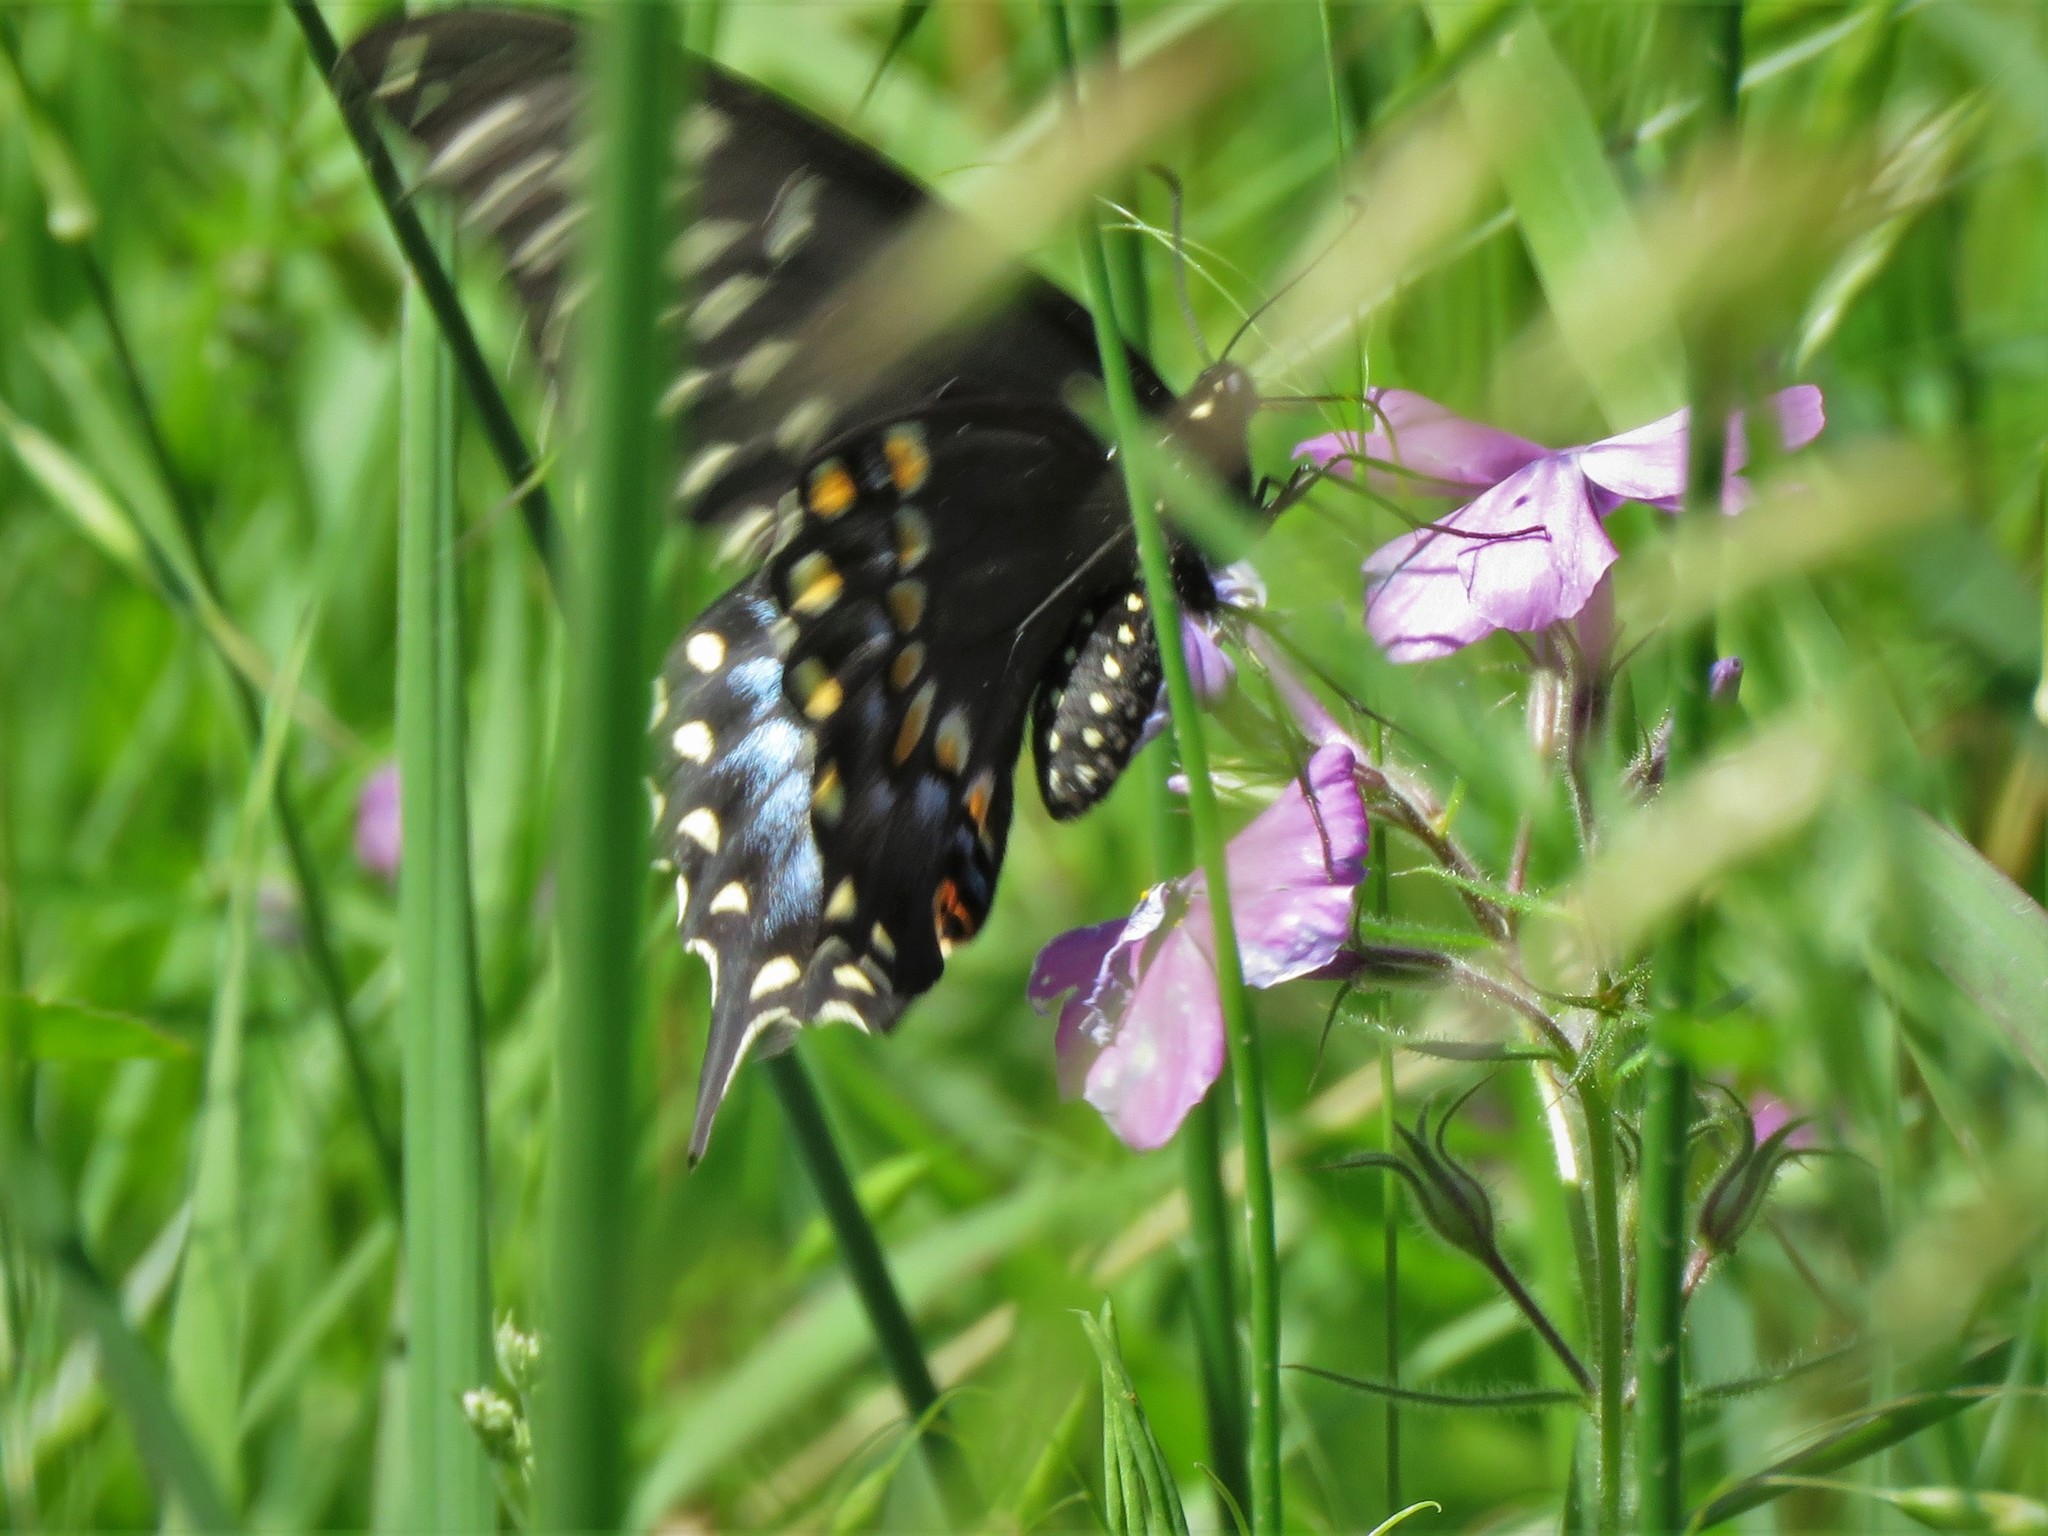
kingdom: Animalia
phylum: Arthropoda
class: Insecta
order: Lepidoptera
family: Papilionidae
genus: Papilio
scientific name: Papilio polyxenes
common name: Black swallowtail
